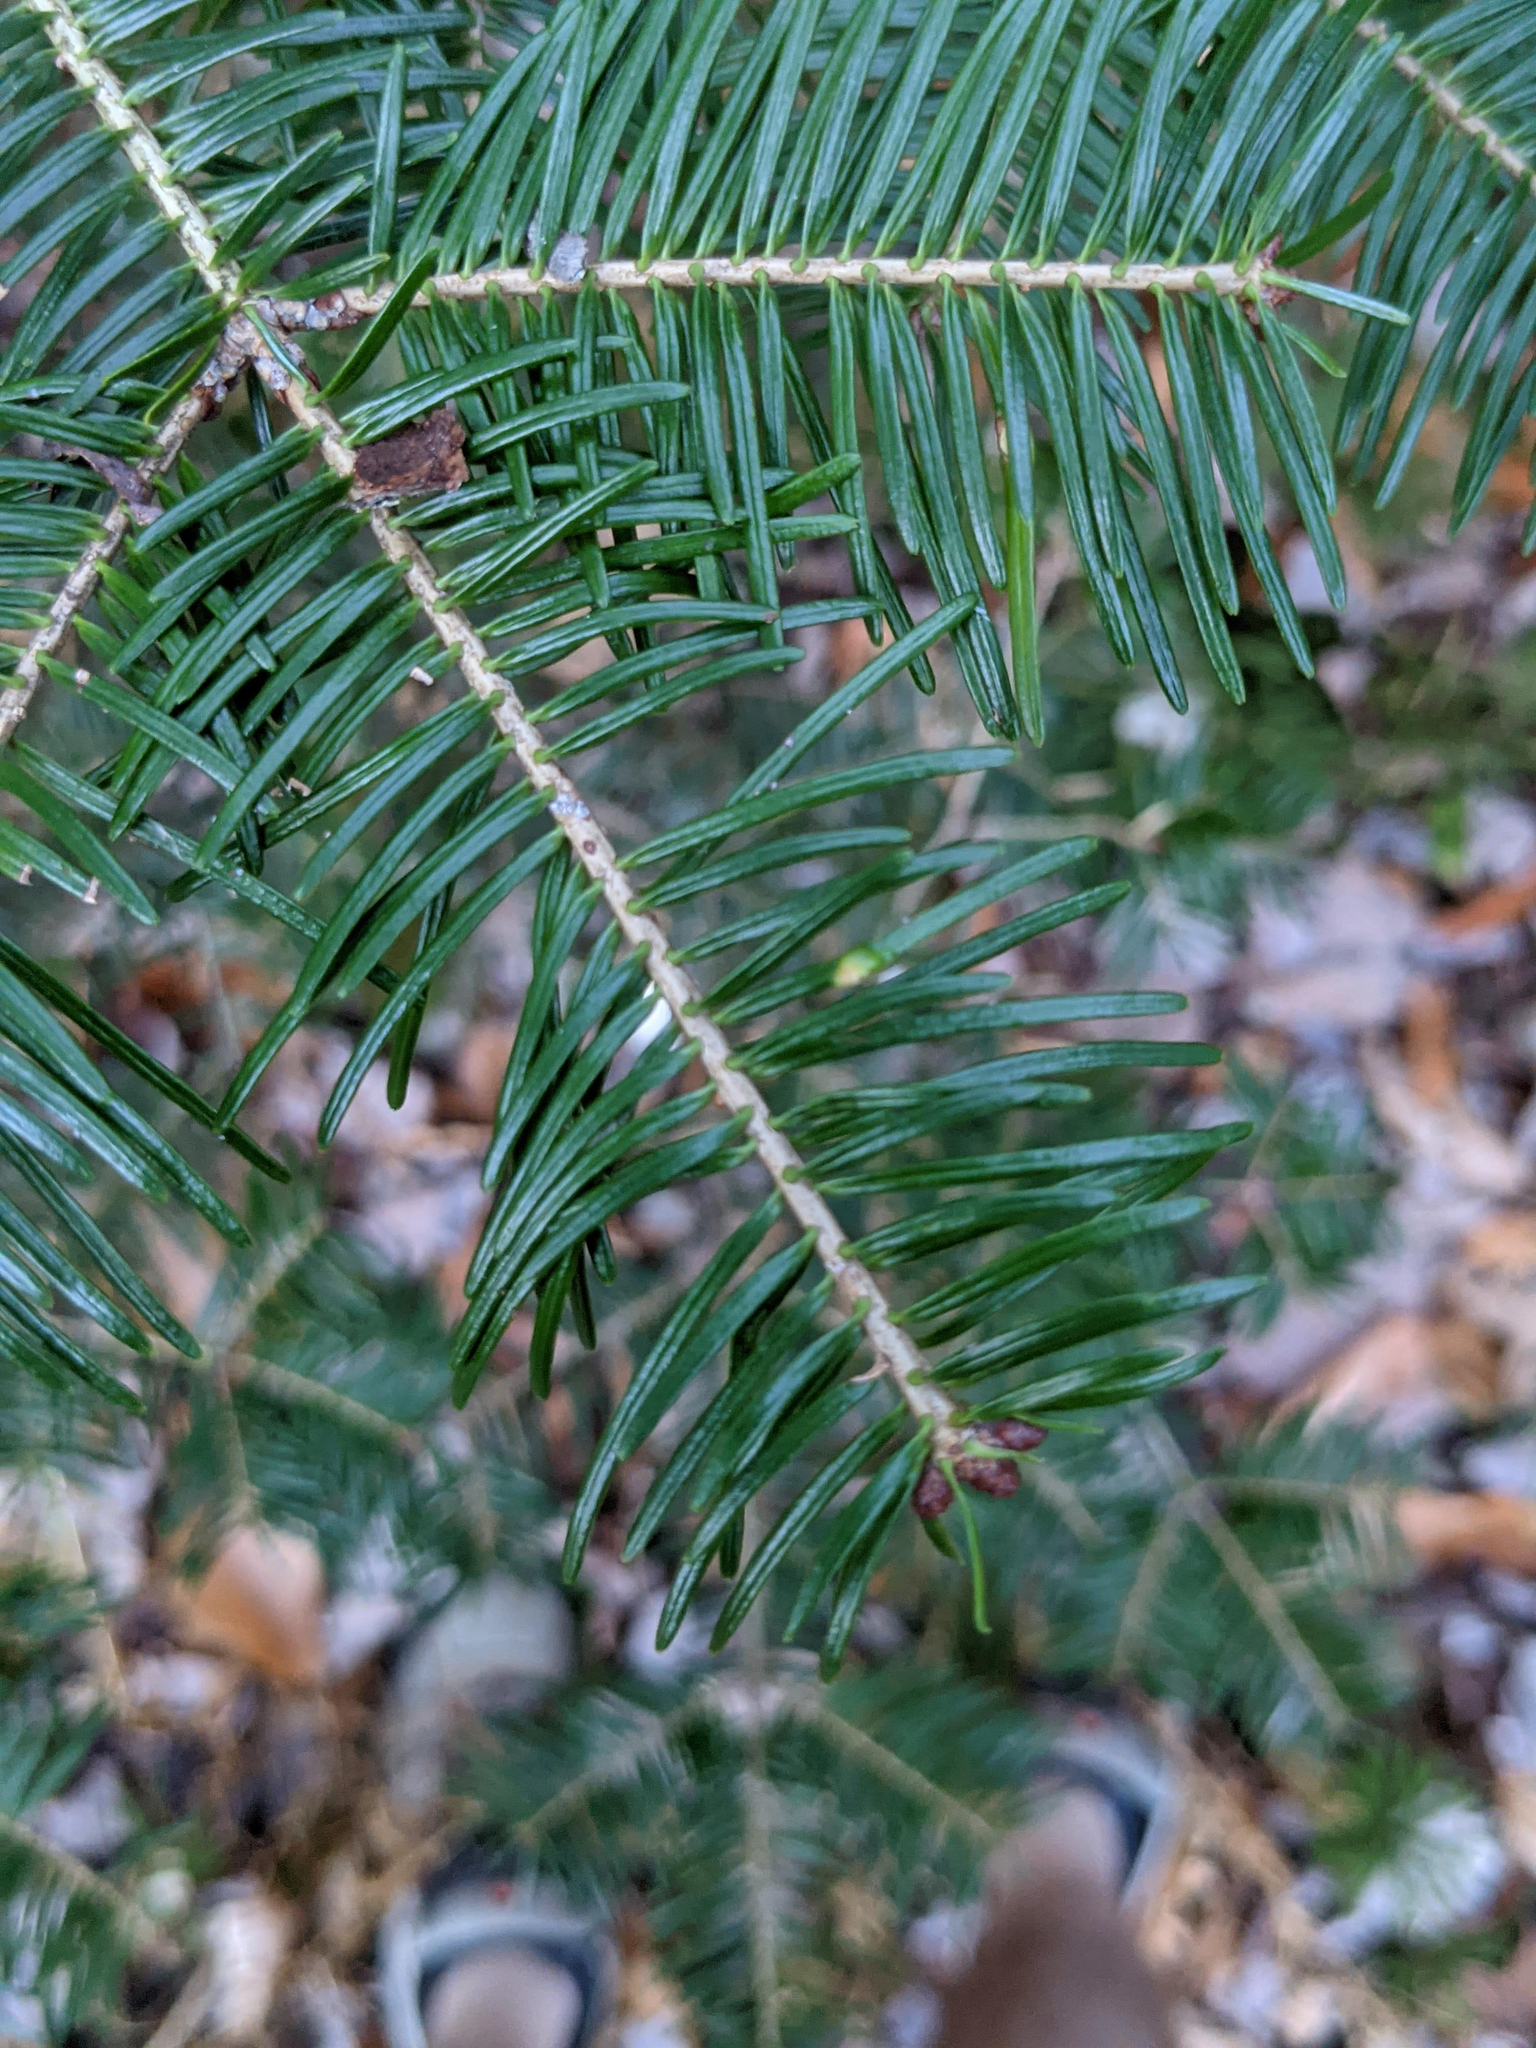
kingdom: Animalia
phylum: Arthropoda
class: Insecta
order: Diptera
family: Cecidomyiidae
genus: Paradiplosis
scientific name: Paradiplosis tumifex
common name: Gall midge
